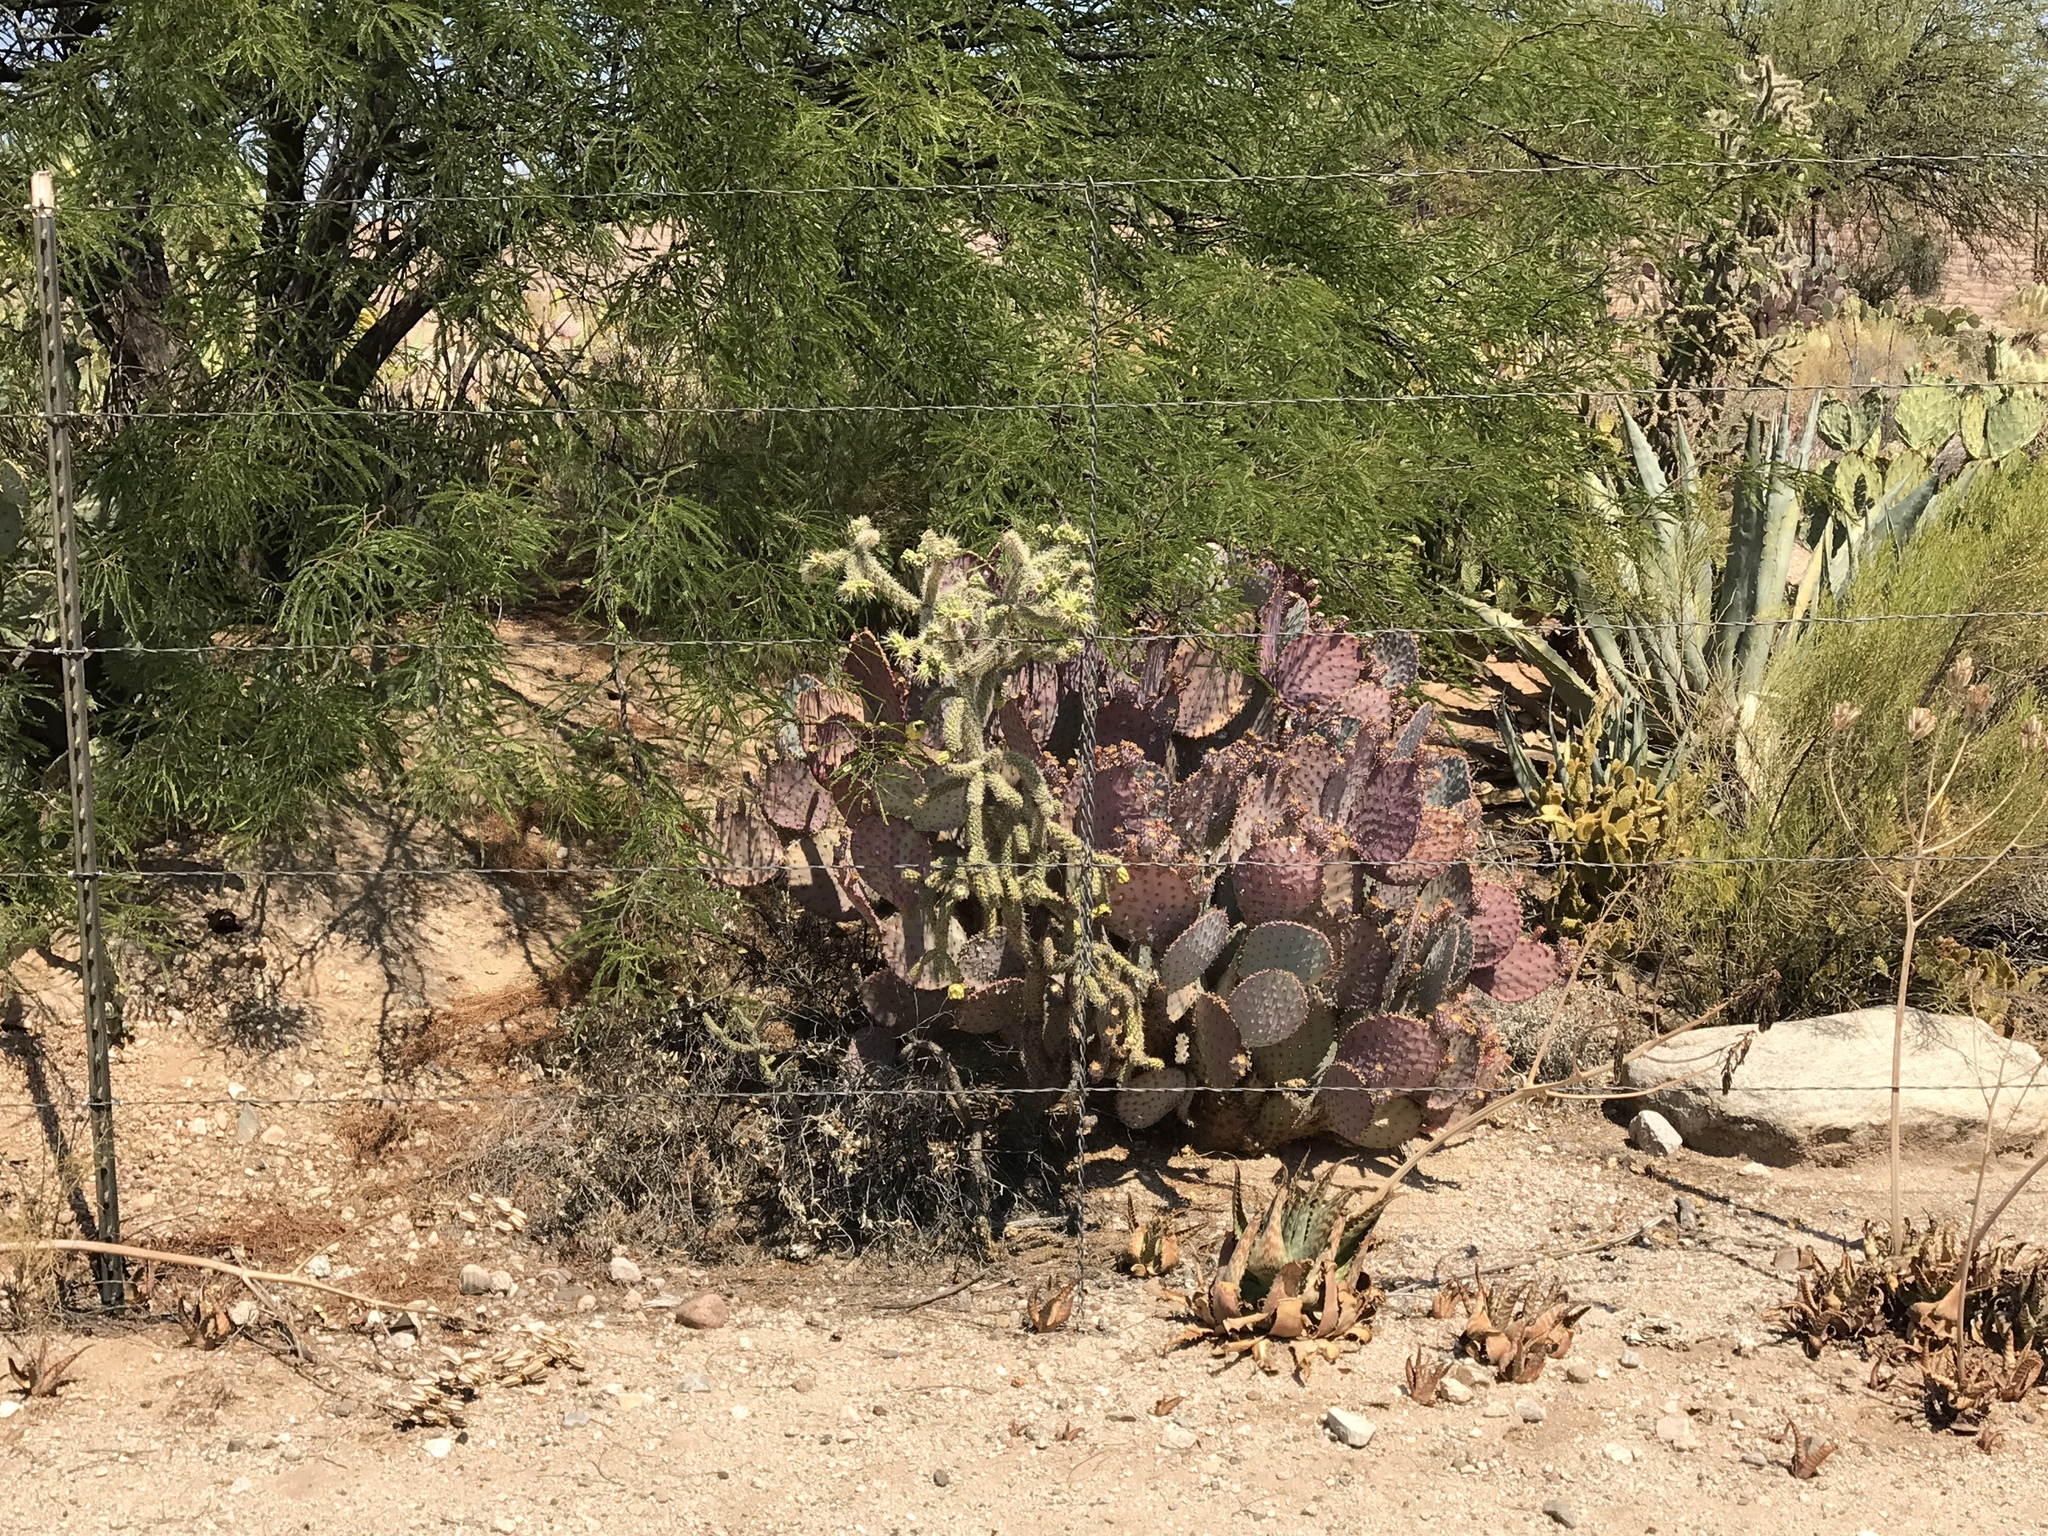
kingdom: Plantae
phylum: Tracheophyta
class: Magnoliopsida
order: Caryophyllales
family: Cactaceae
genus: Opuntia
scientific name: Opuntia gosseliniana
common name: Violet prickly-pear
